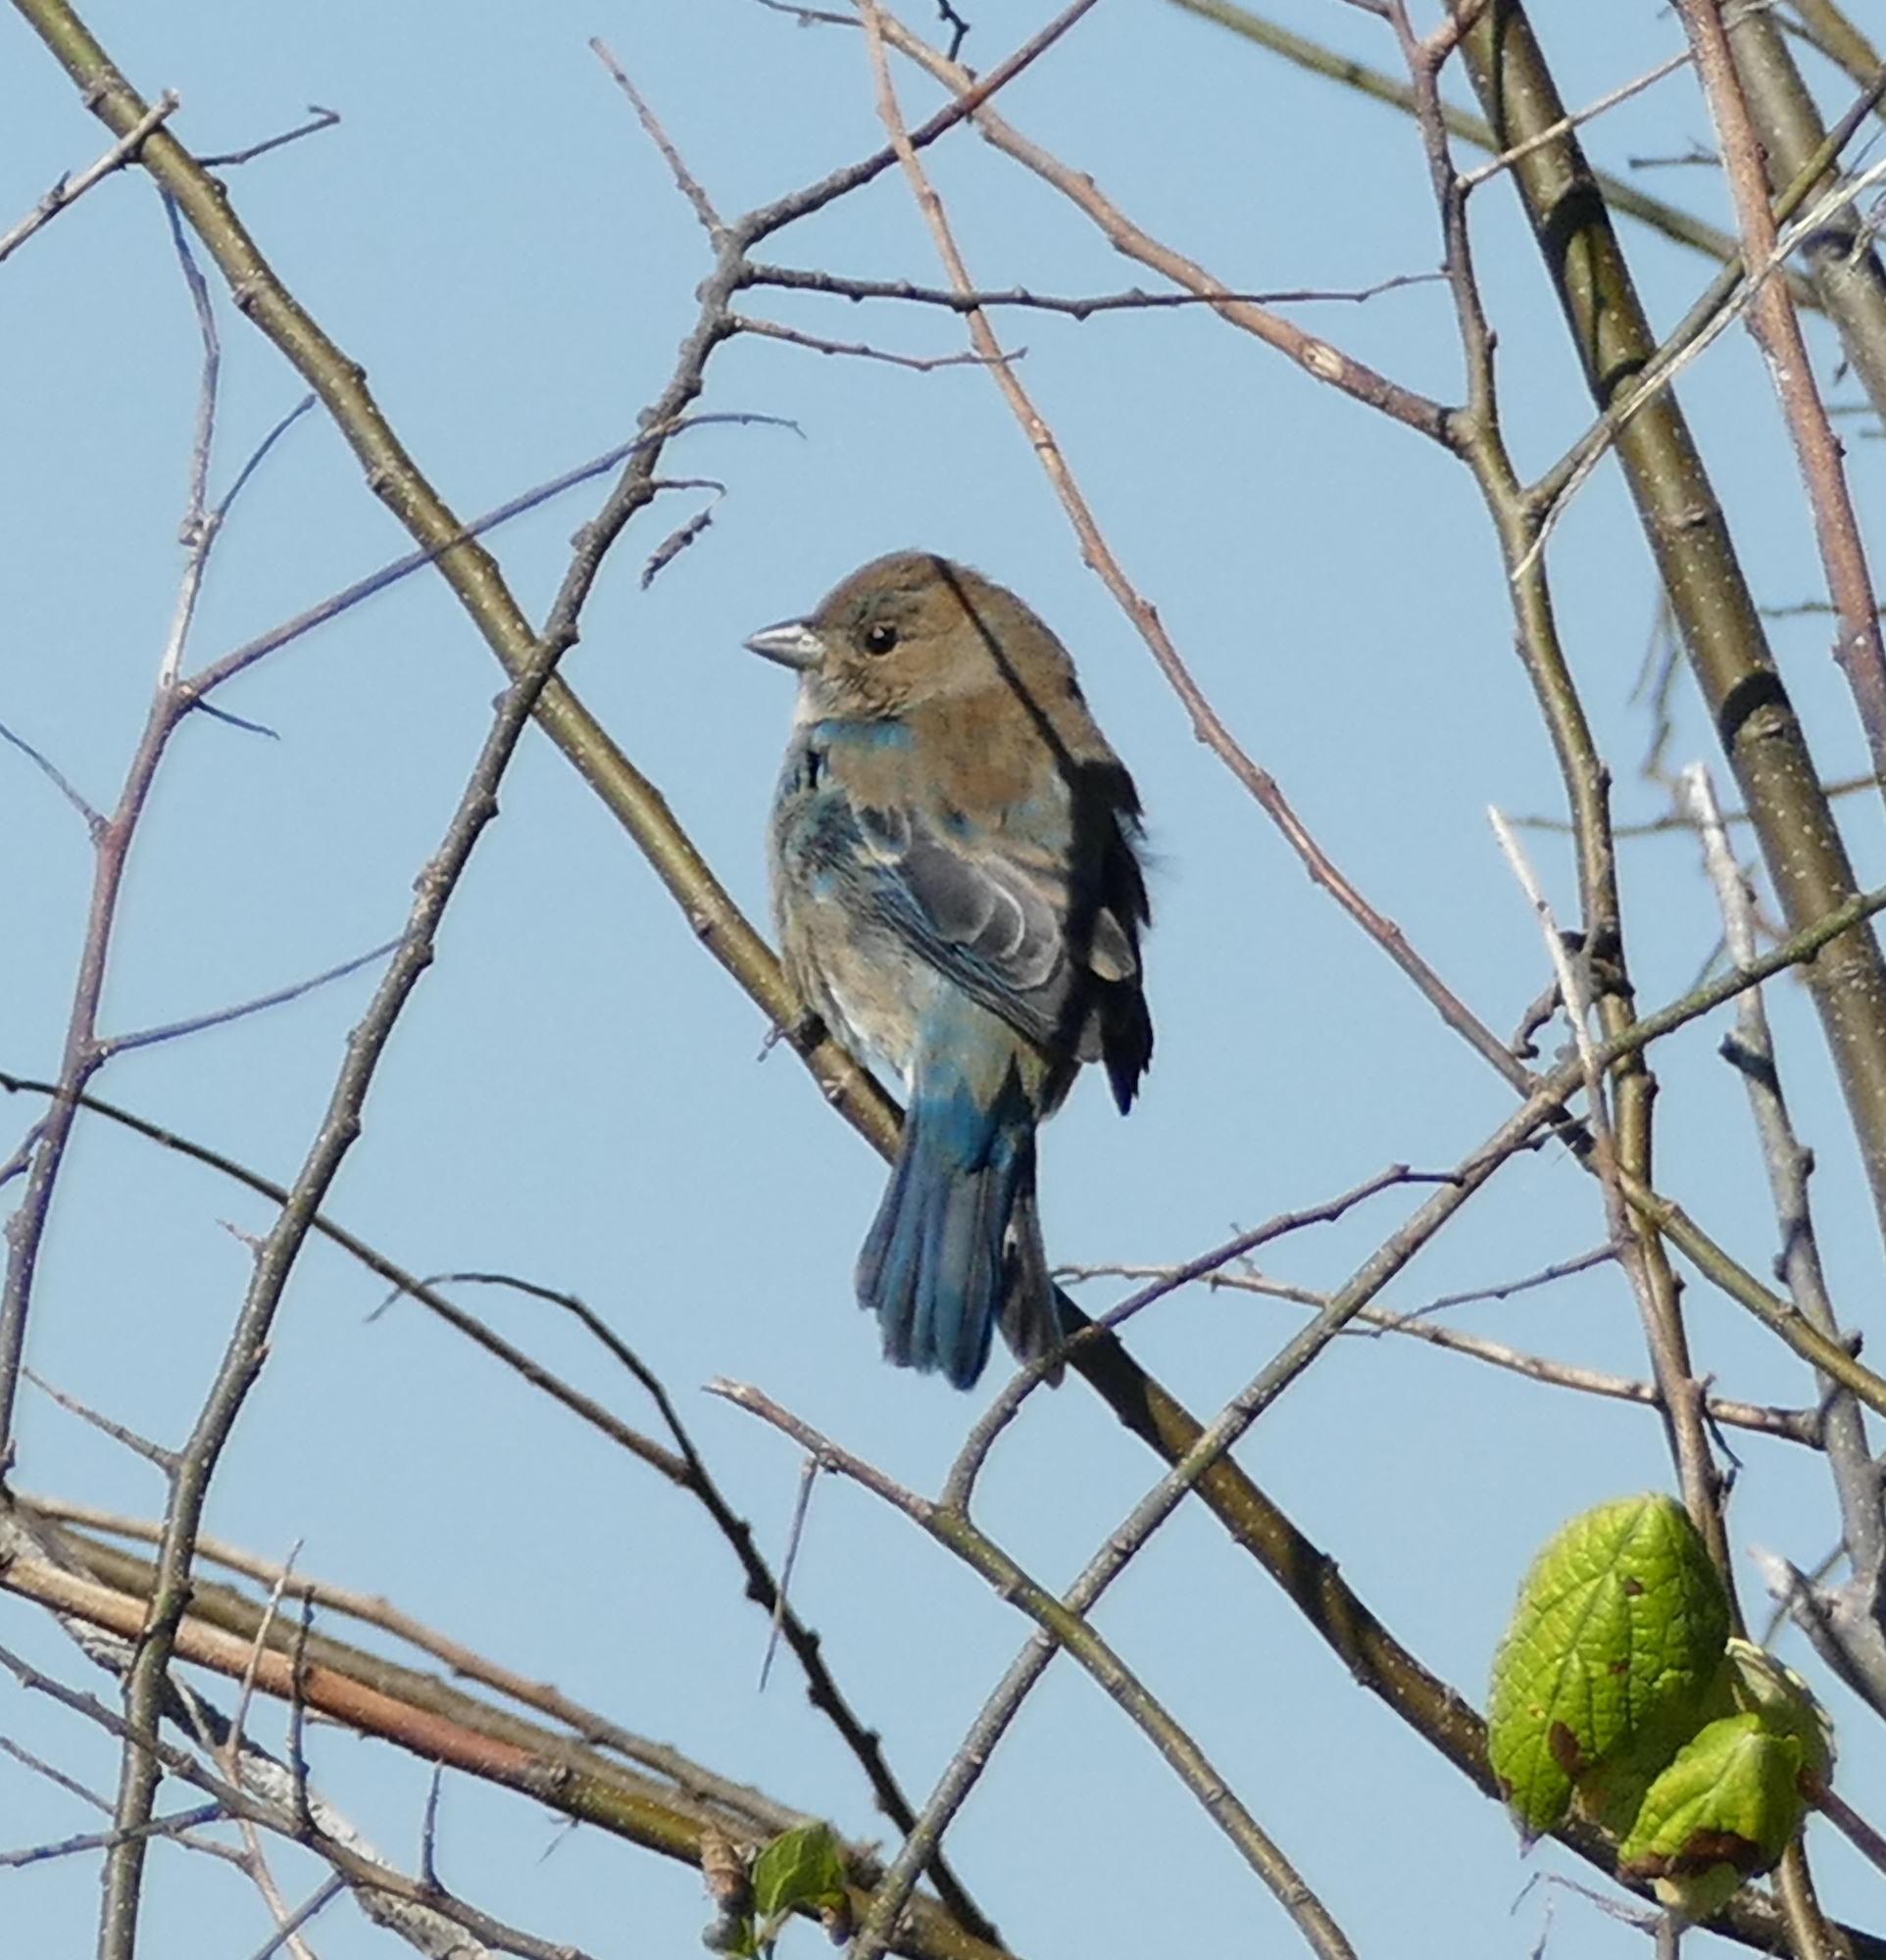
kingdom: Animalia
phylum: Chordata
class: Aves
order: Passeriformes
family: Cardinalidae
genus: Passerina
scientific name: Passerina cyanea
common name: Indigo bunting
